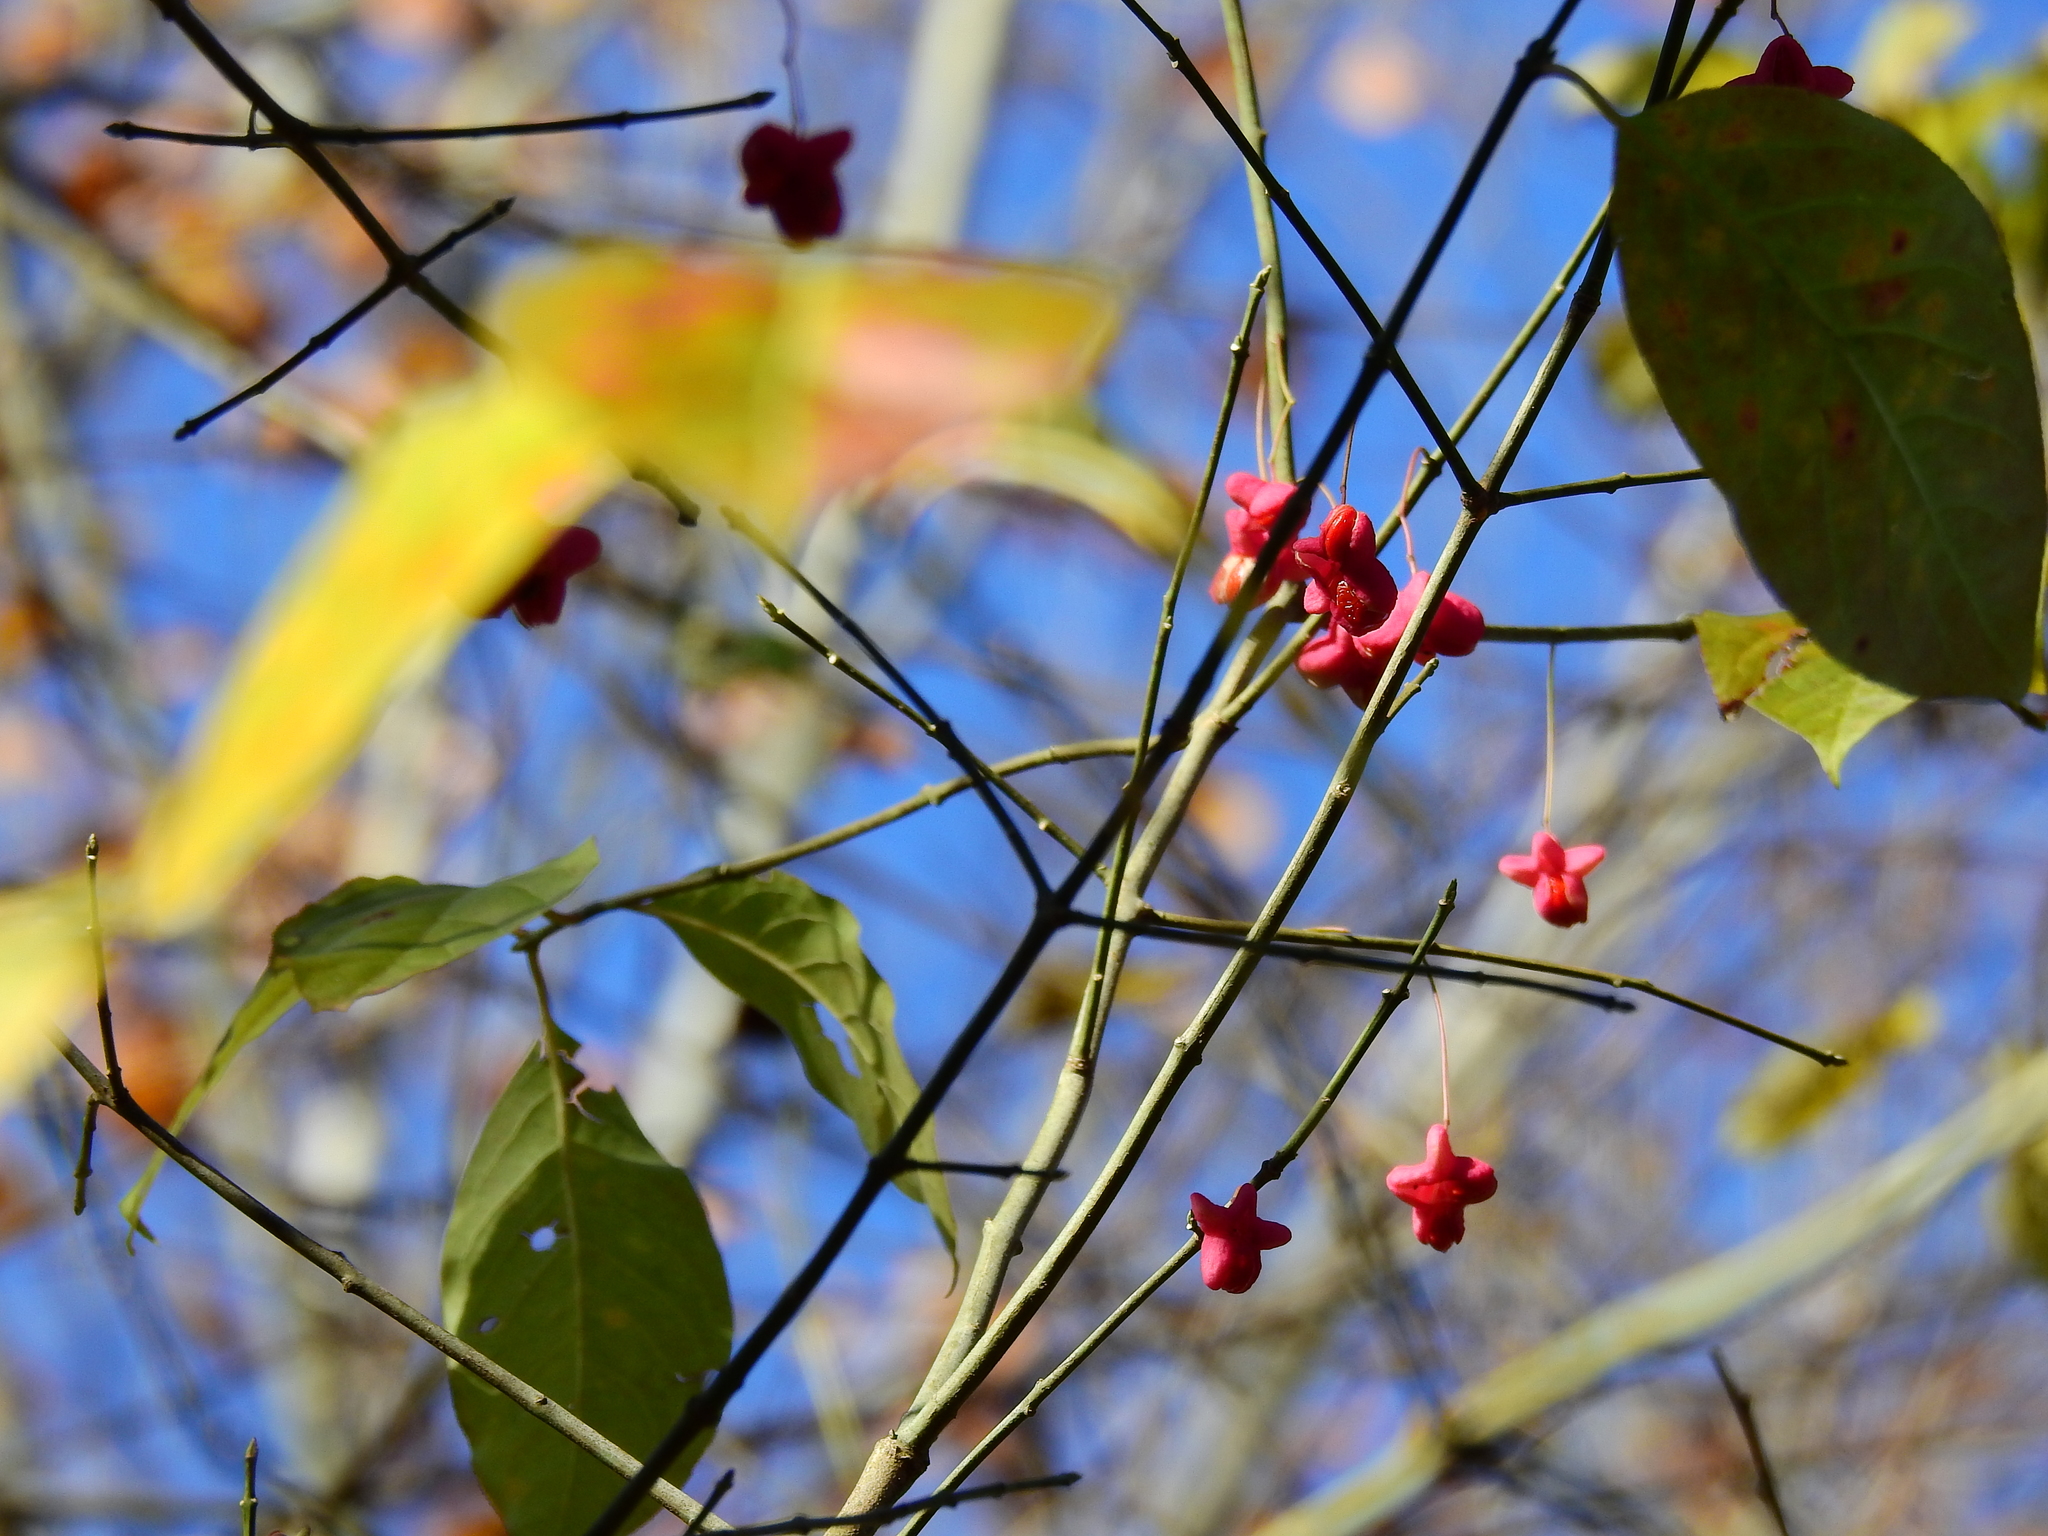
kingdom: Plantae
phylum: Tracheophyta
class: Magnoliopsida
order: Celastrales
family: Celastraceae
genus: Euonymus
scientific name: Euonymus atropurpureus
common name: Eastern wahoo
